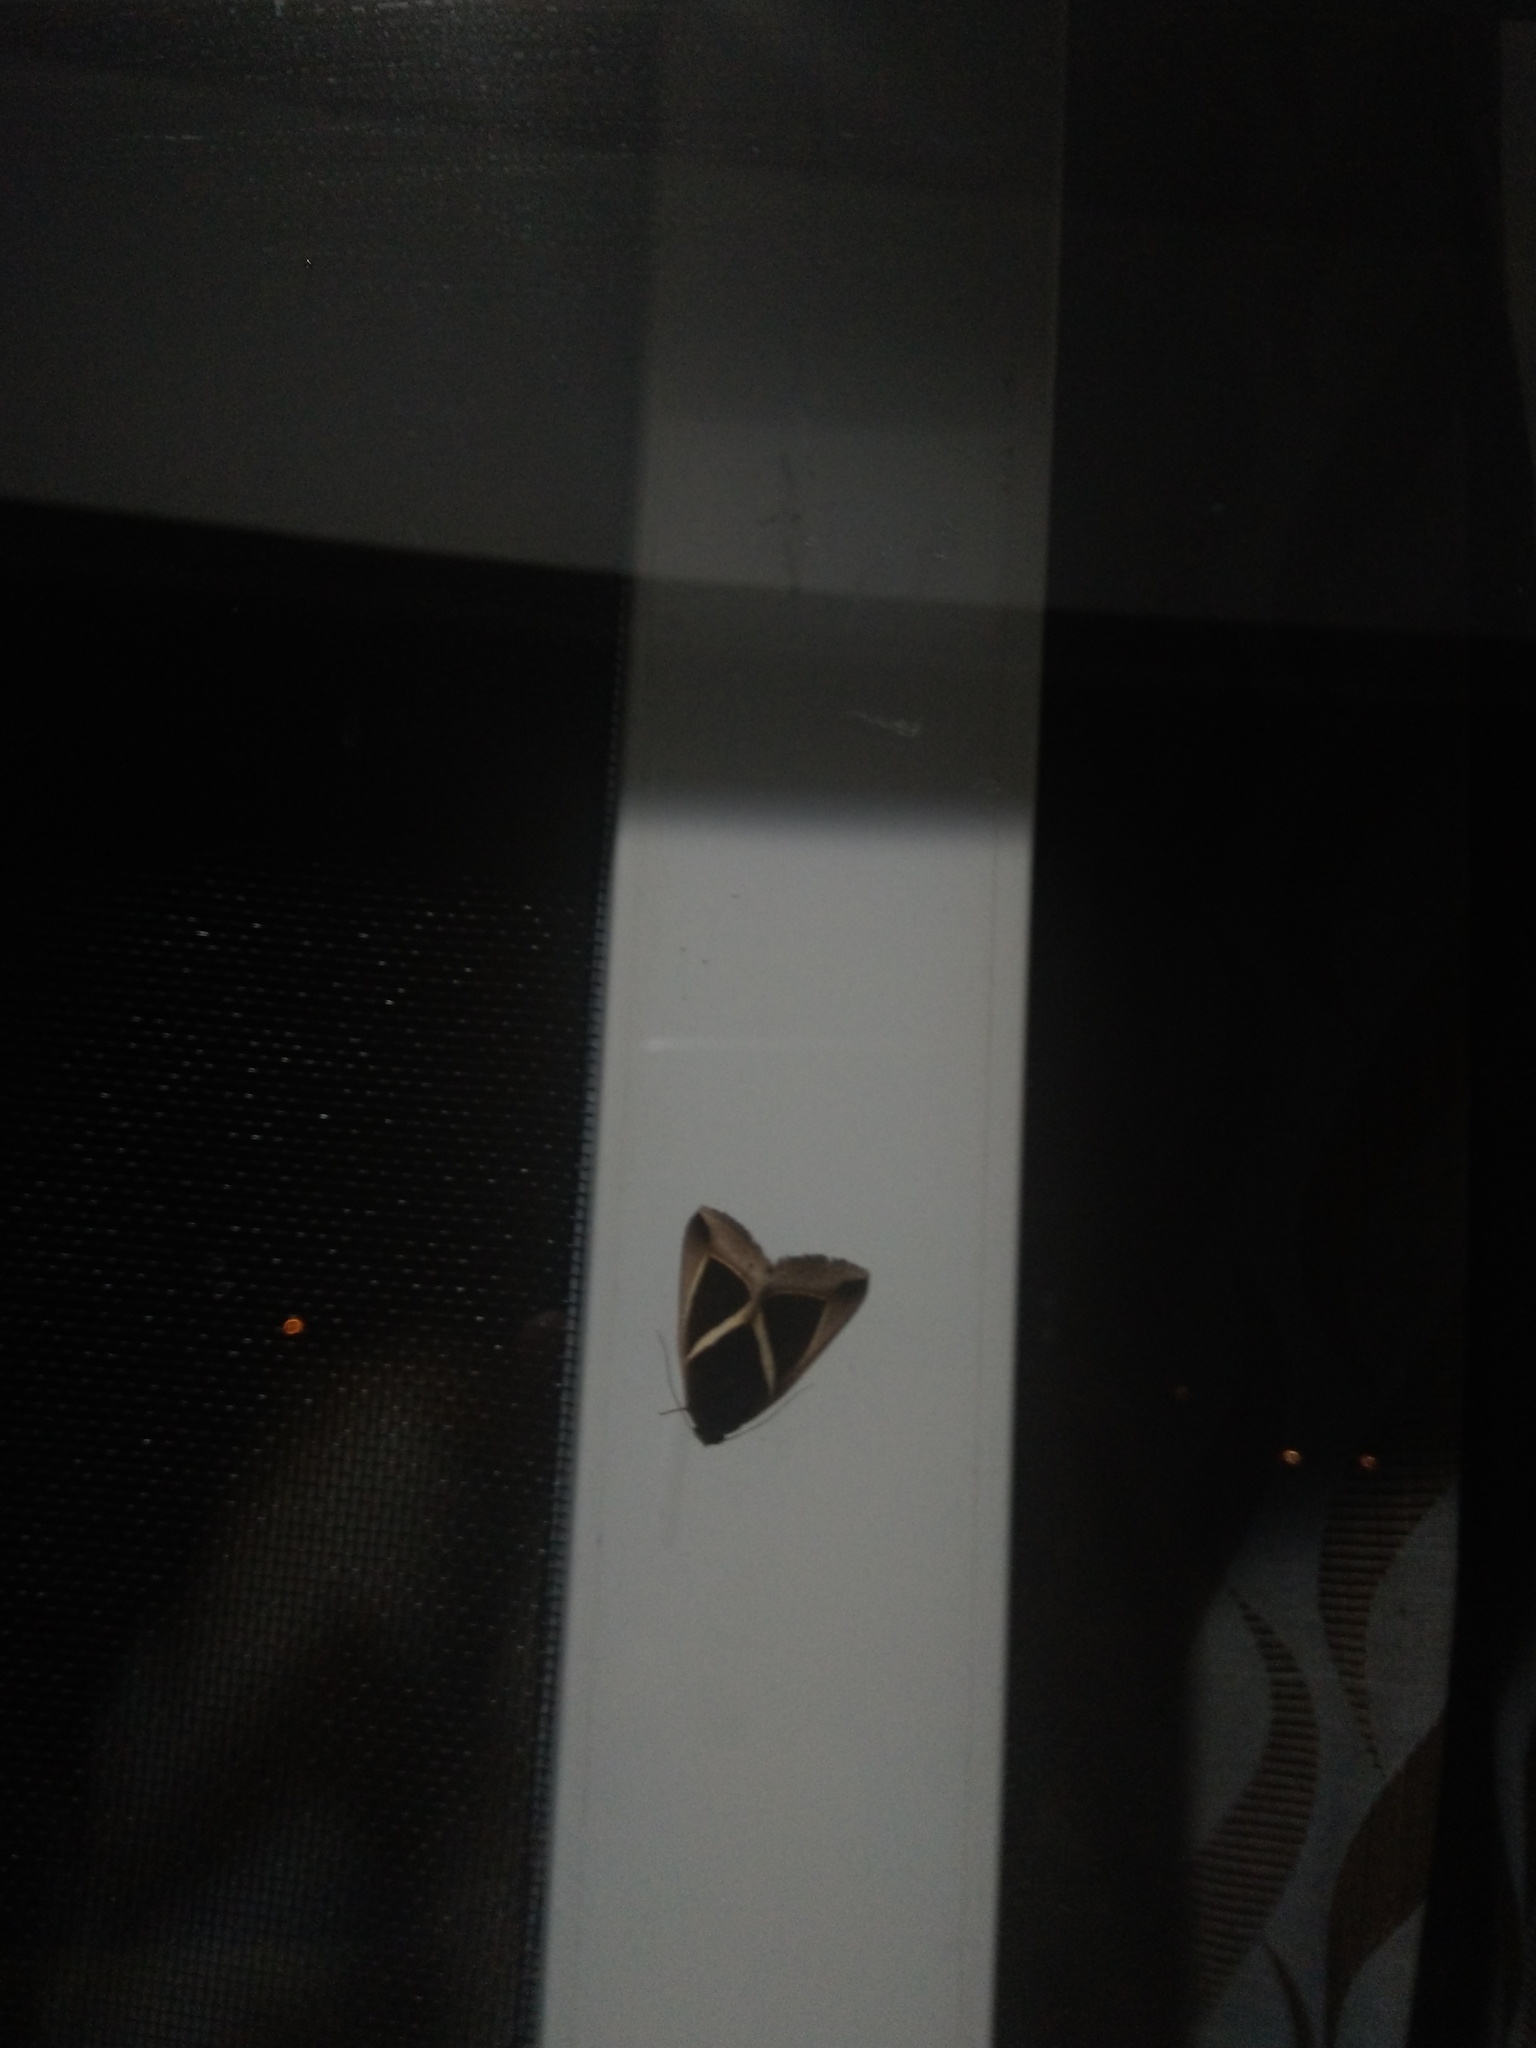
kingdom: Animalia
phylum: Arthropoda
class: Insecta
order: Lepidoptera
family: Erebidae
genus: Chalciope
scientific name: Chalciope mygdon
